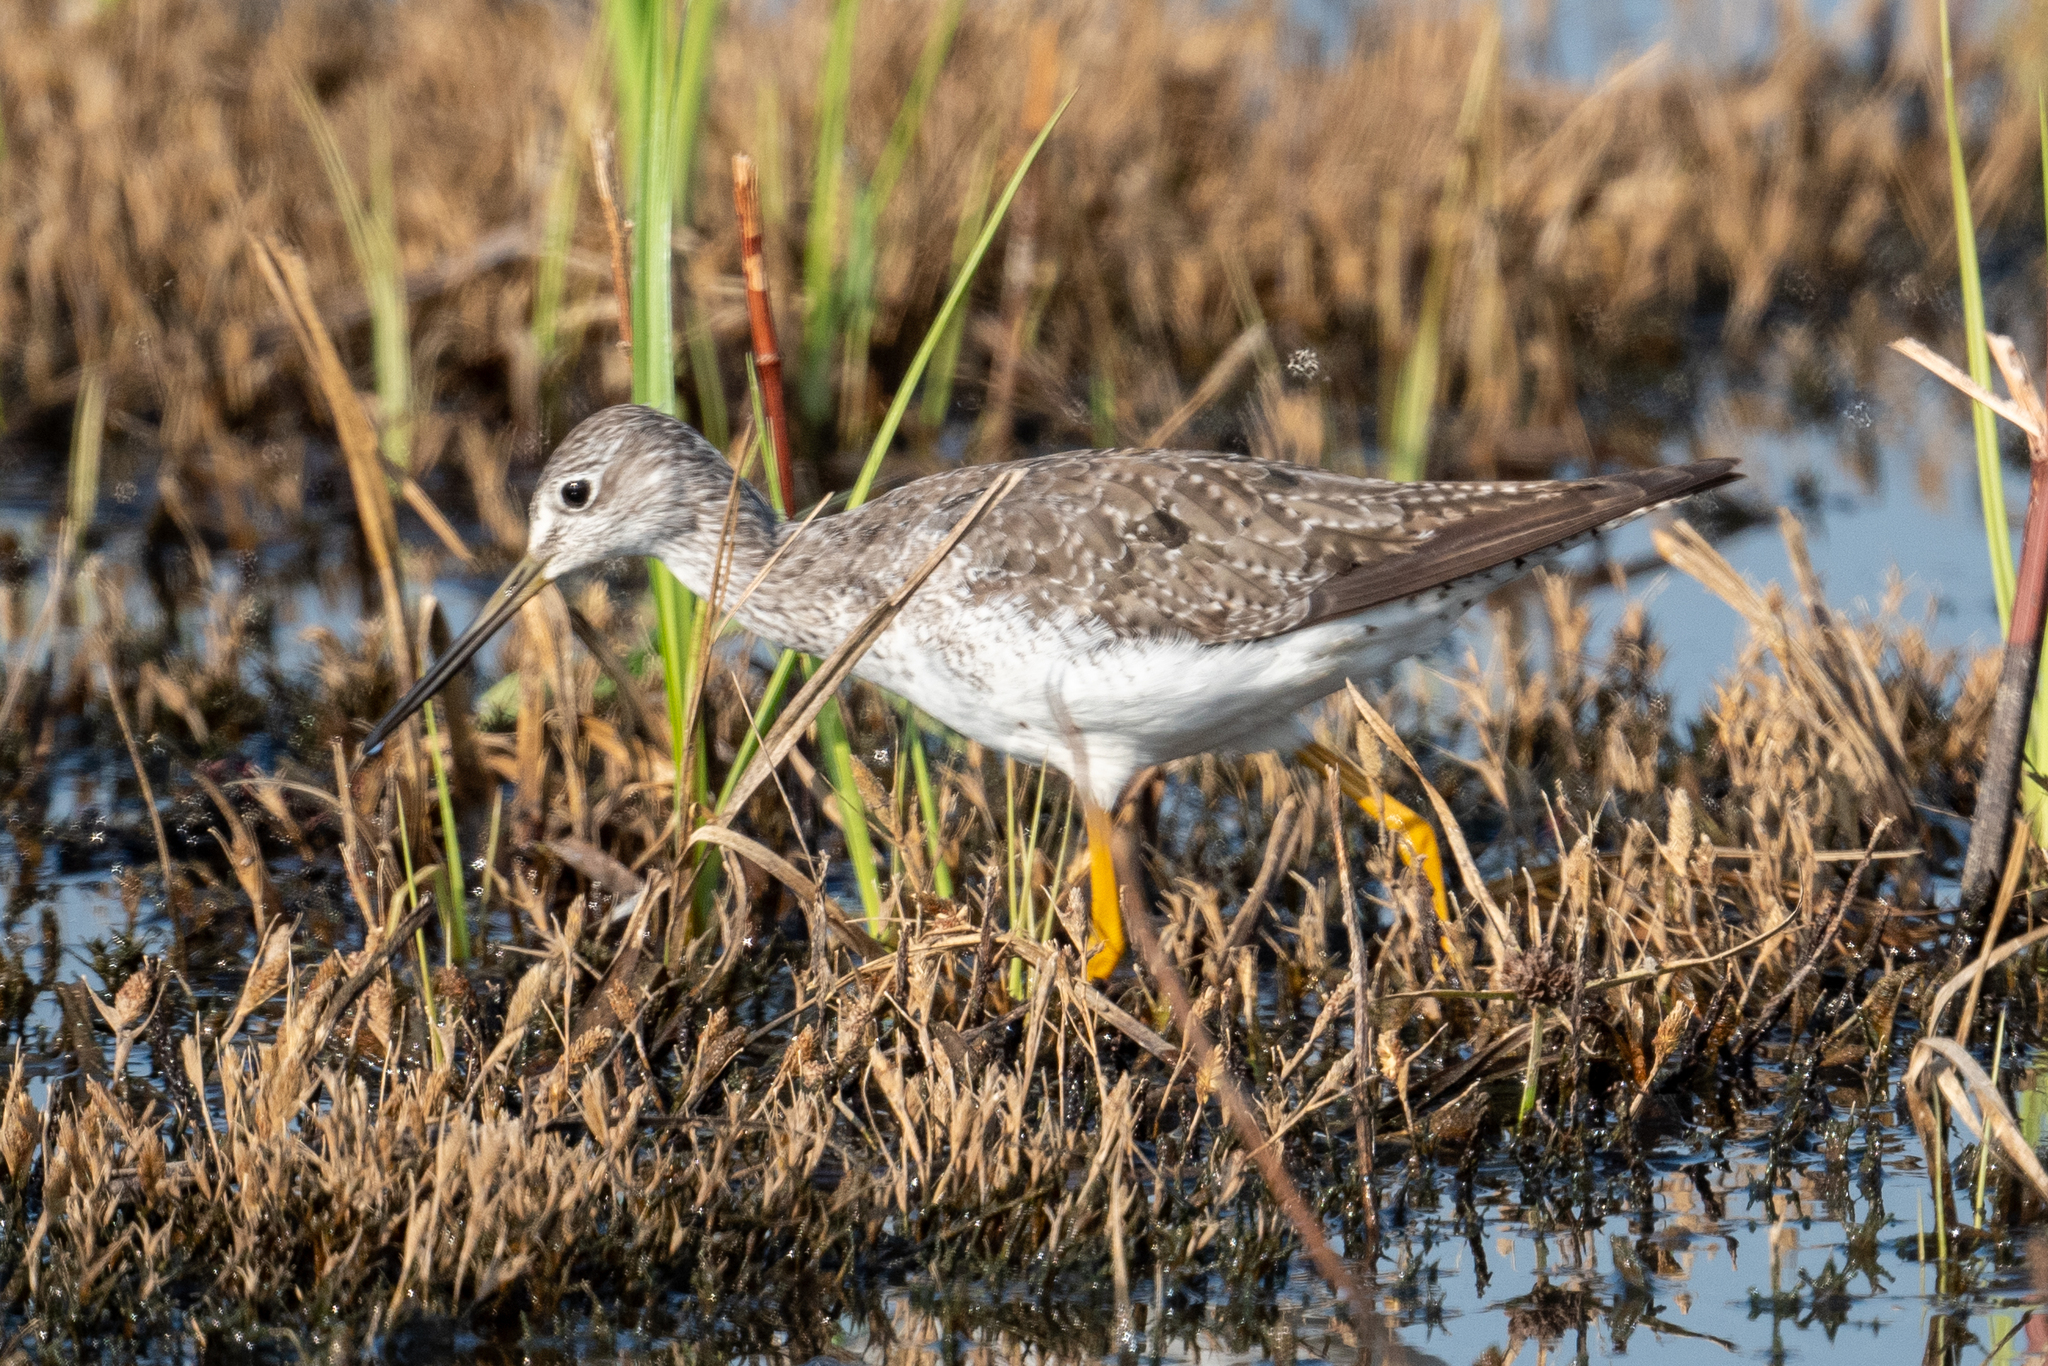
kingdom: Animalia
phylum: Chordata
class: Aves
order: Charadriiformes
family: Scolopacidae
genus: Tringa
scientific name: Tringa melanoleuca
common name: Greater yellowlegs
